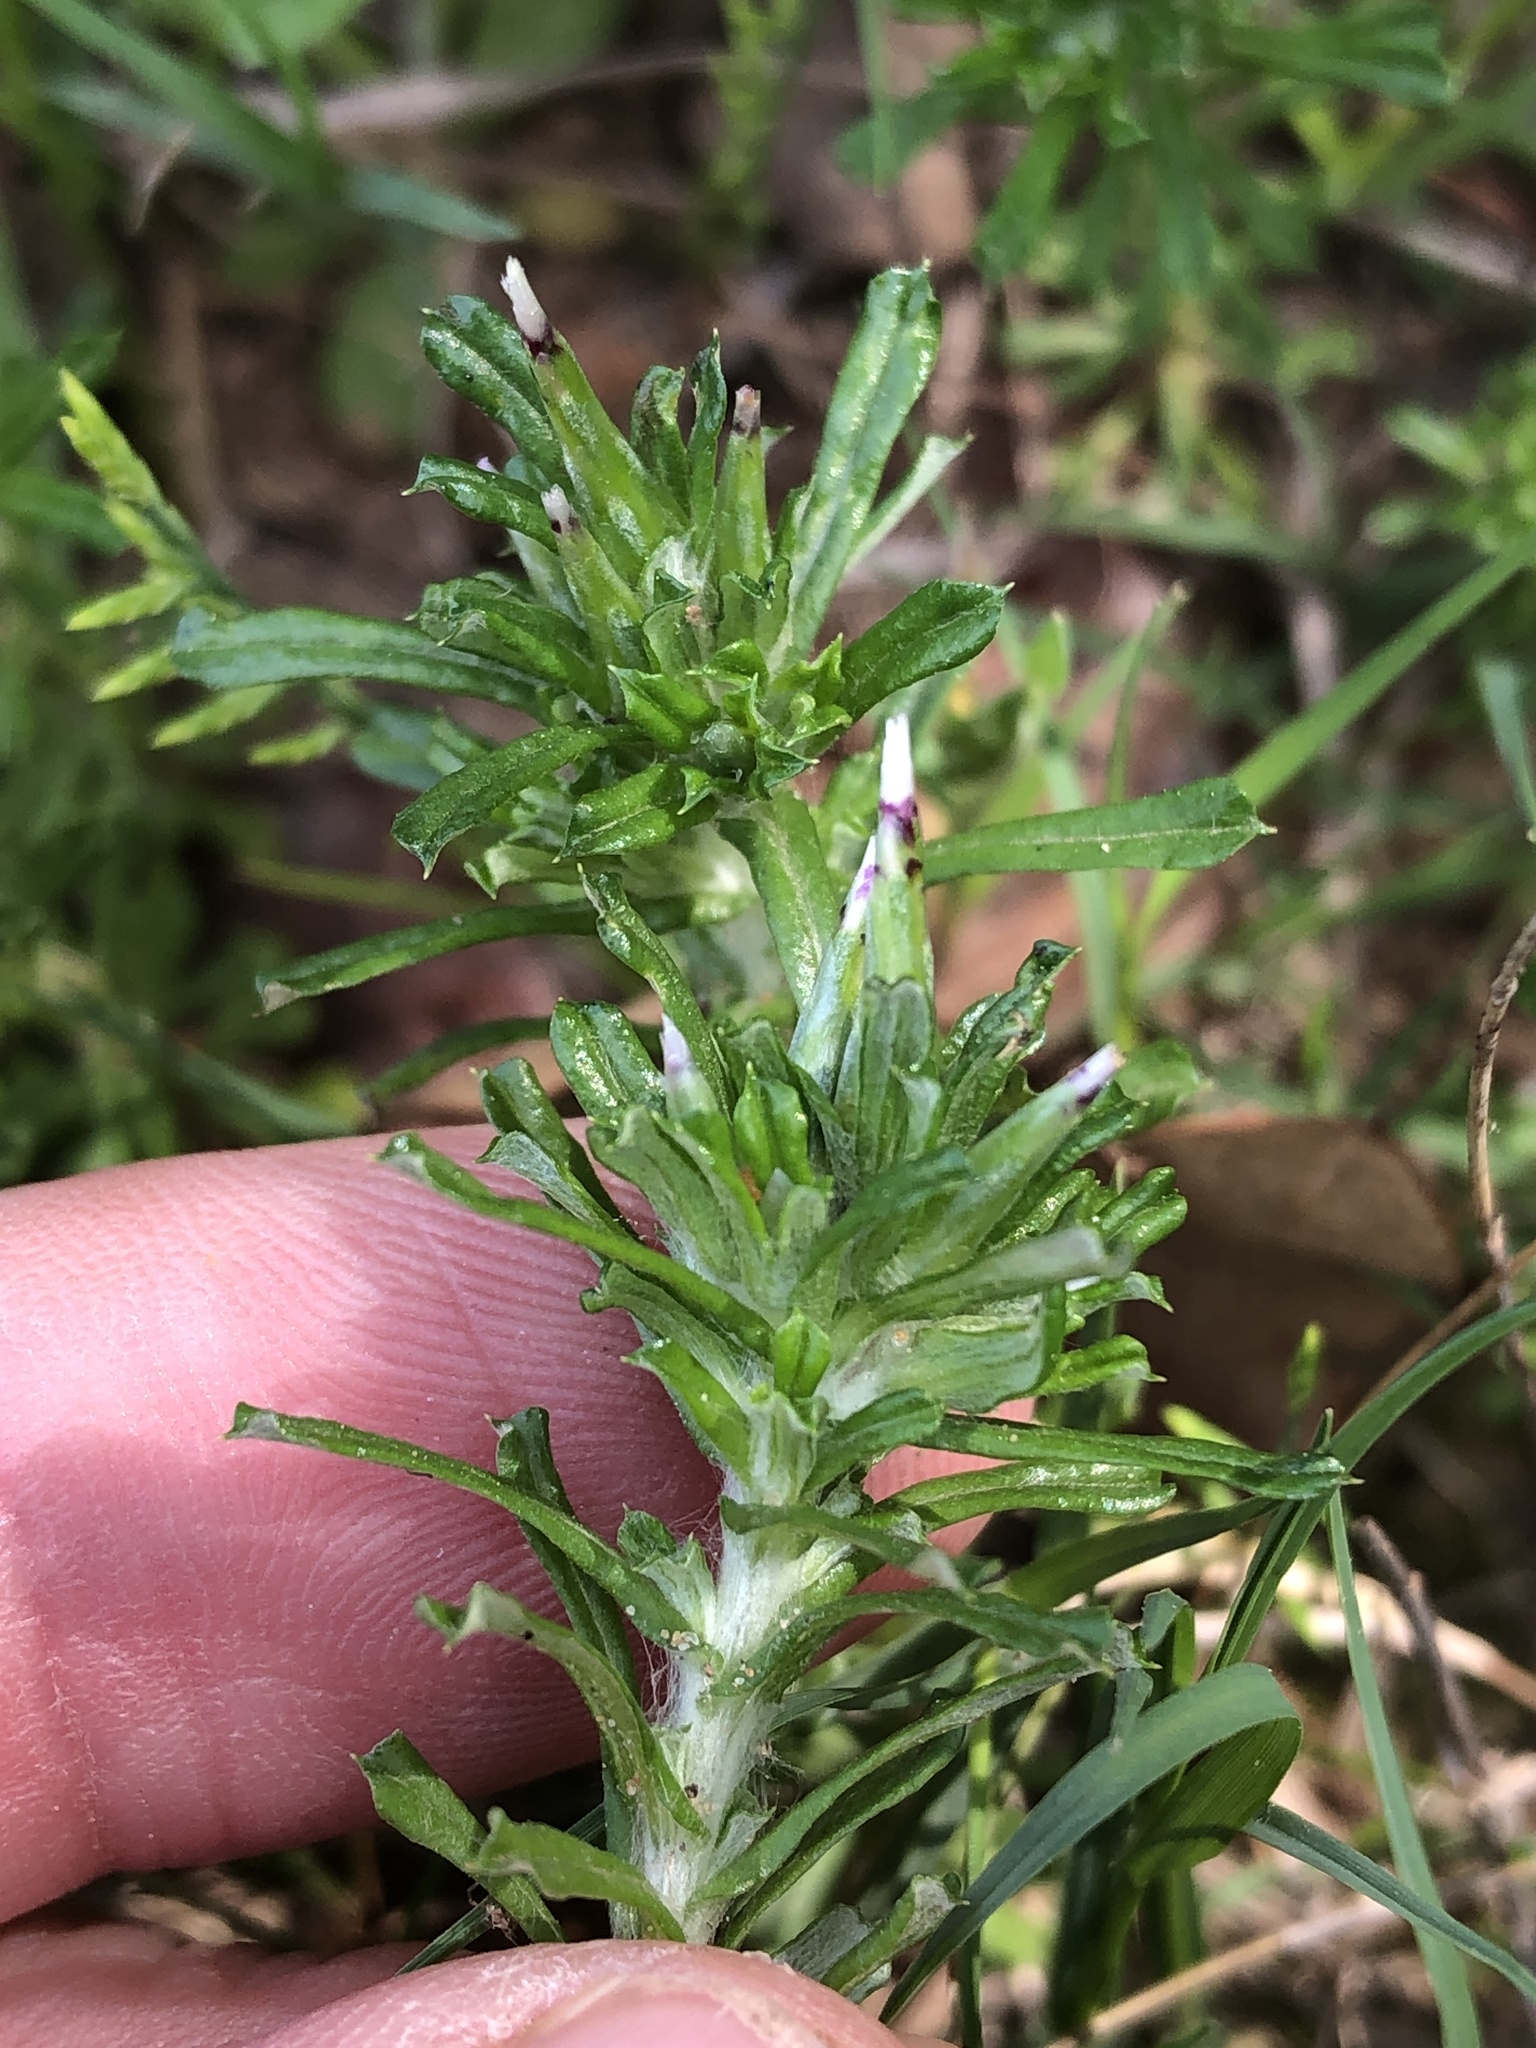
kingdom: Plantae
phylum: Tracheophyta
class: Magnoliopsida
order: Asterales
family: Asteraceae
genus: Facelis
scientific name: Facelis retusa
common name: Annual trampweed
